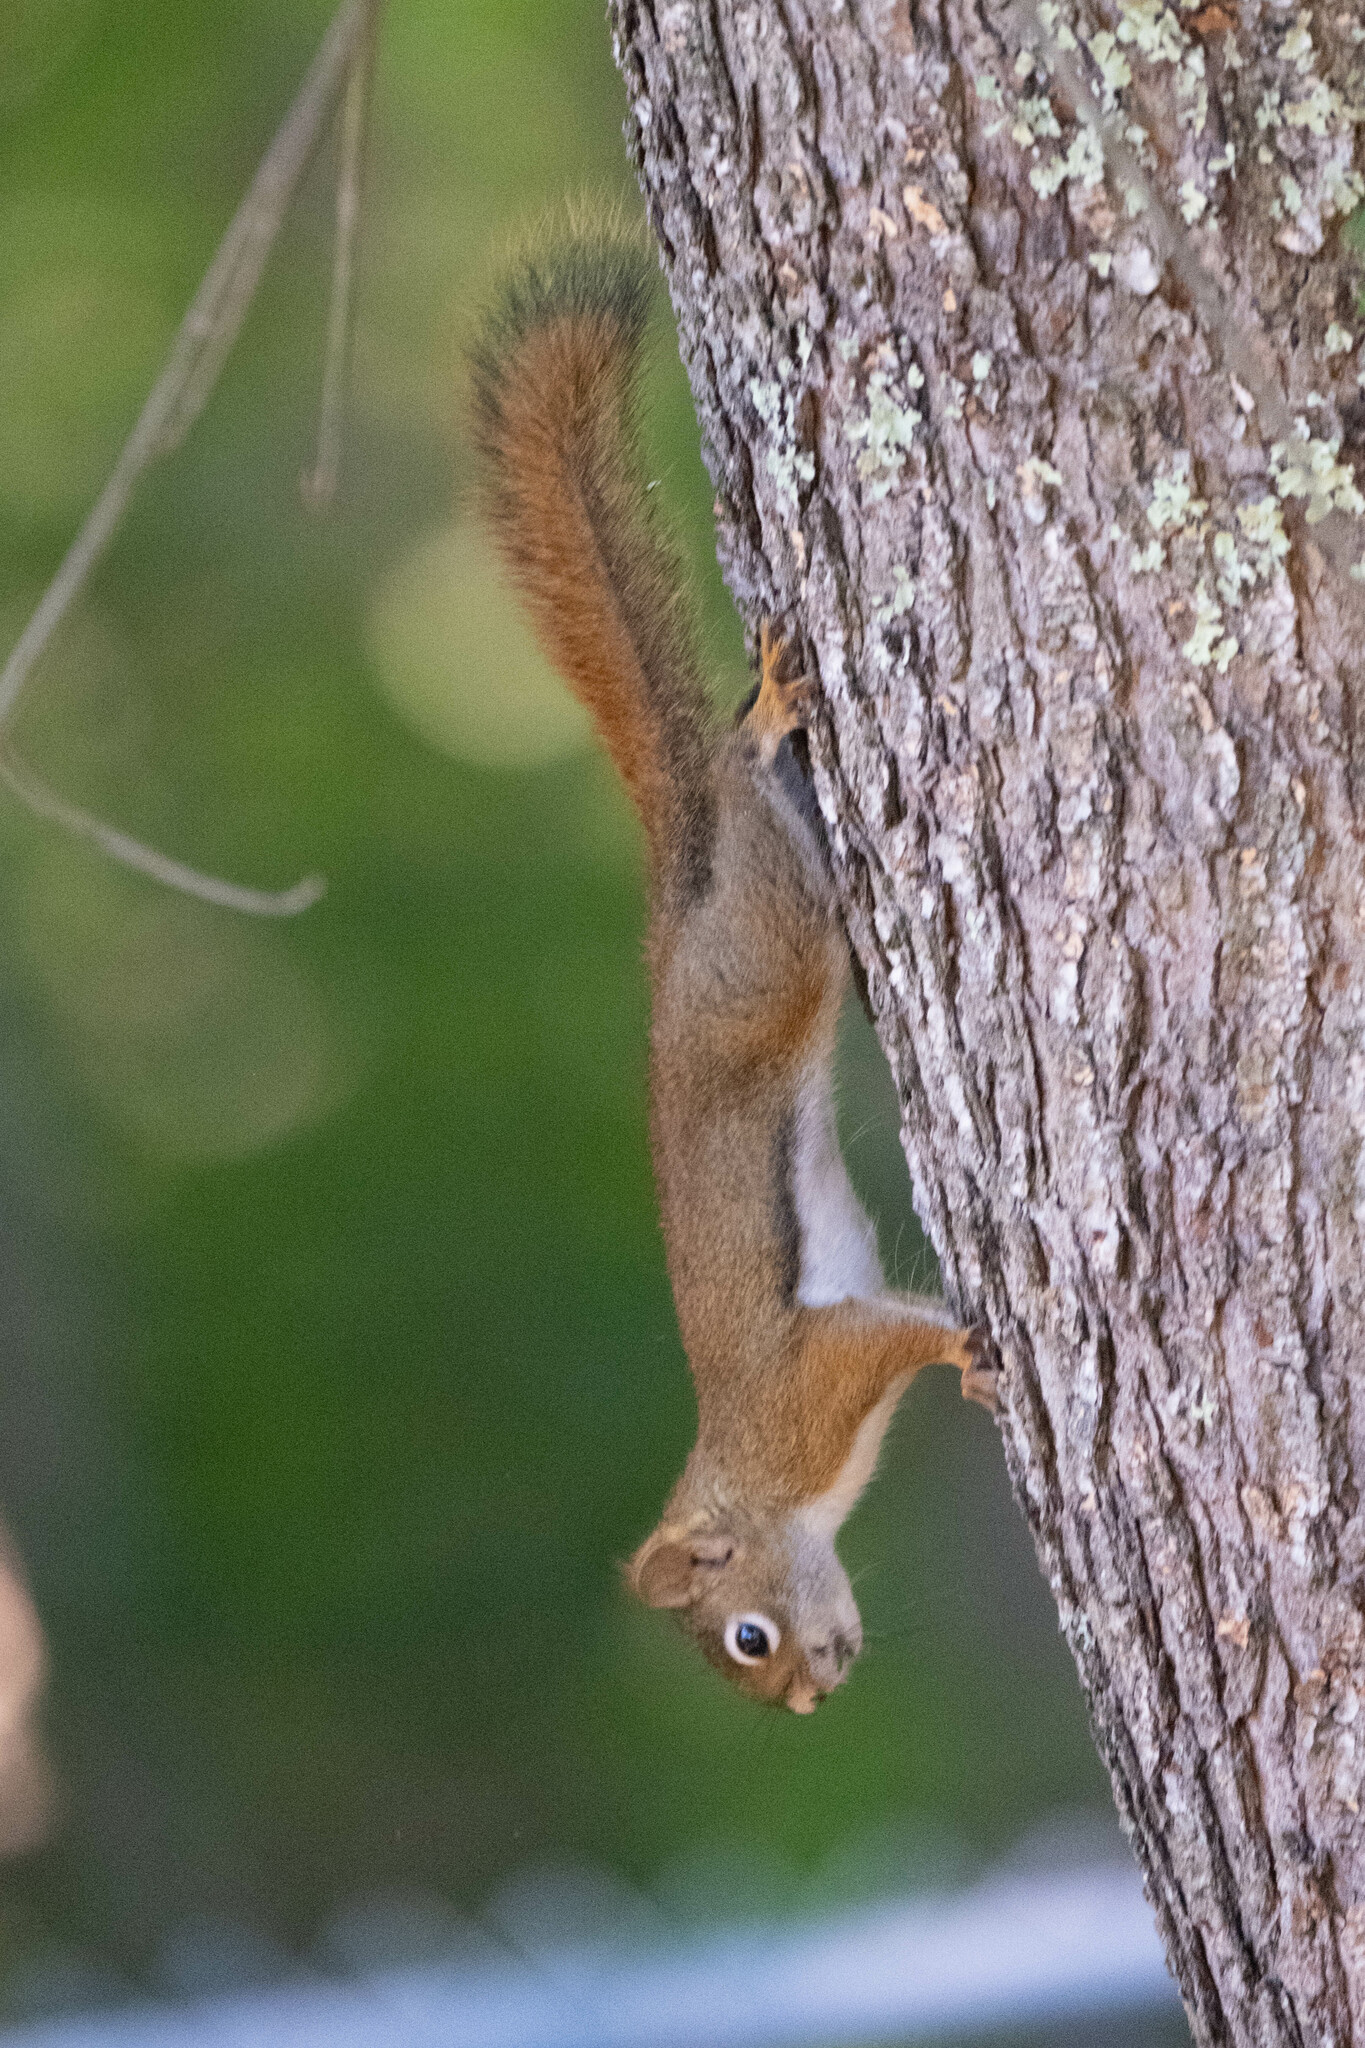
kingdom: Animalia
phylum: Chordata
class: Mammalia
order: Rodentia
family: Sciuridae
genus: Tamiasciurus
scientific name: Tamiasciurus hudsonicus
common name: Red squirrel
